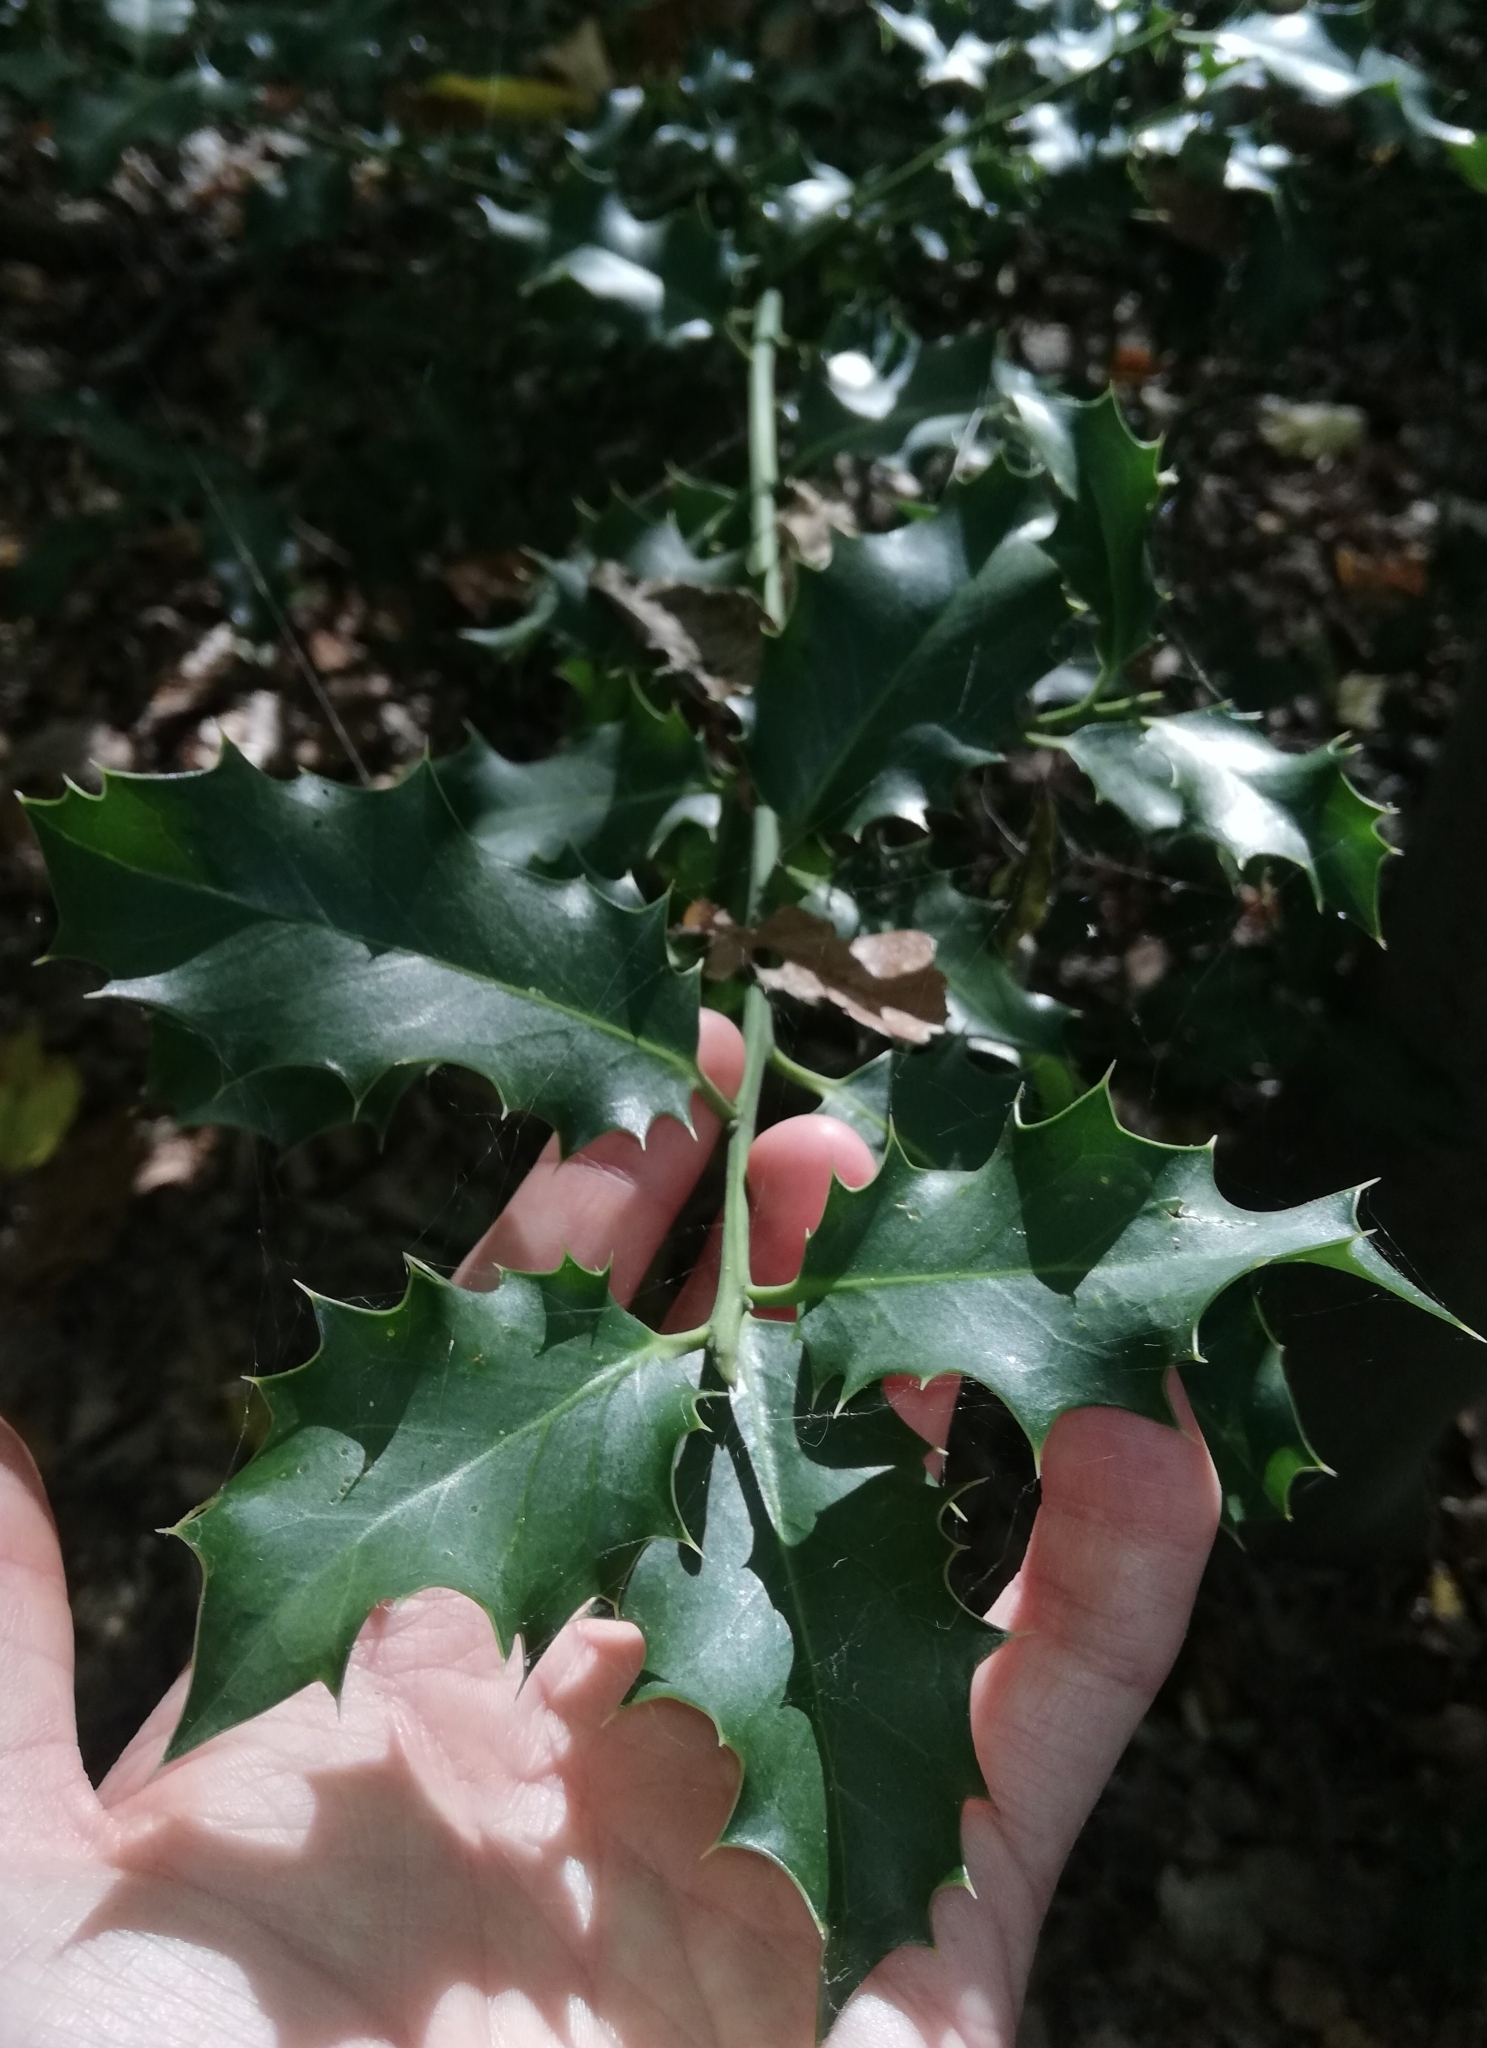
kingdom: Plantae
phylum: Tracheophyta
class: Magnoliopsida
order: Aquifoliales
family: Aquifoliaceae
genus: Ilex
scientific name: Ilex aquifolium
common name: English holly
